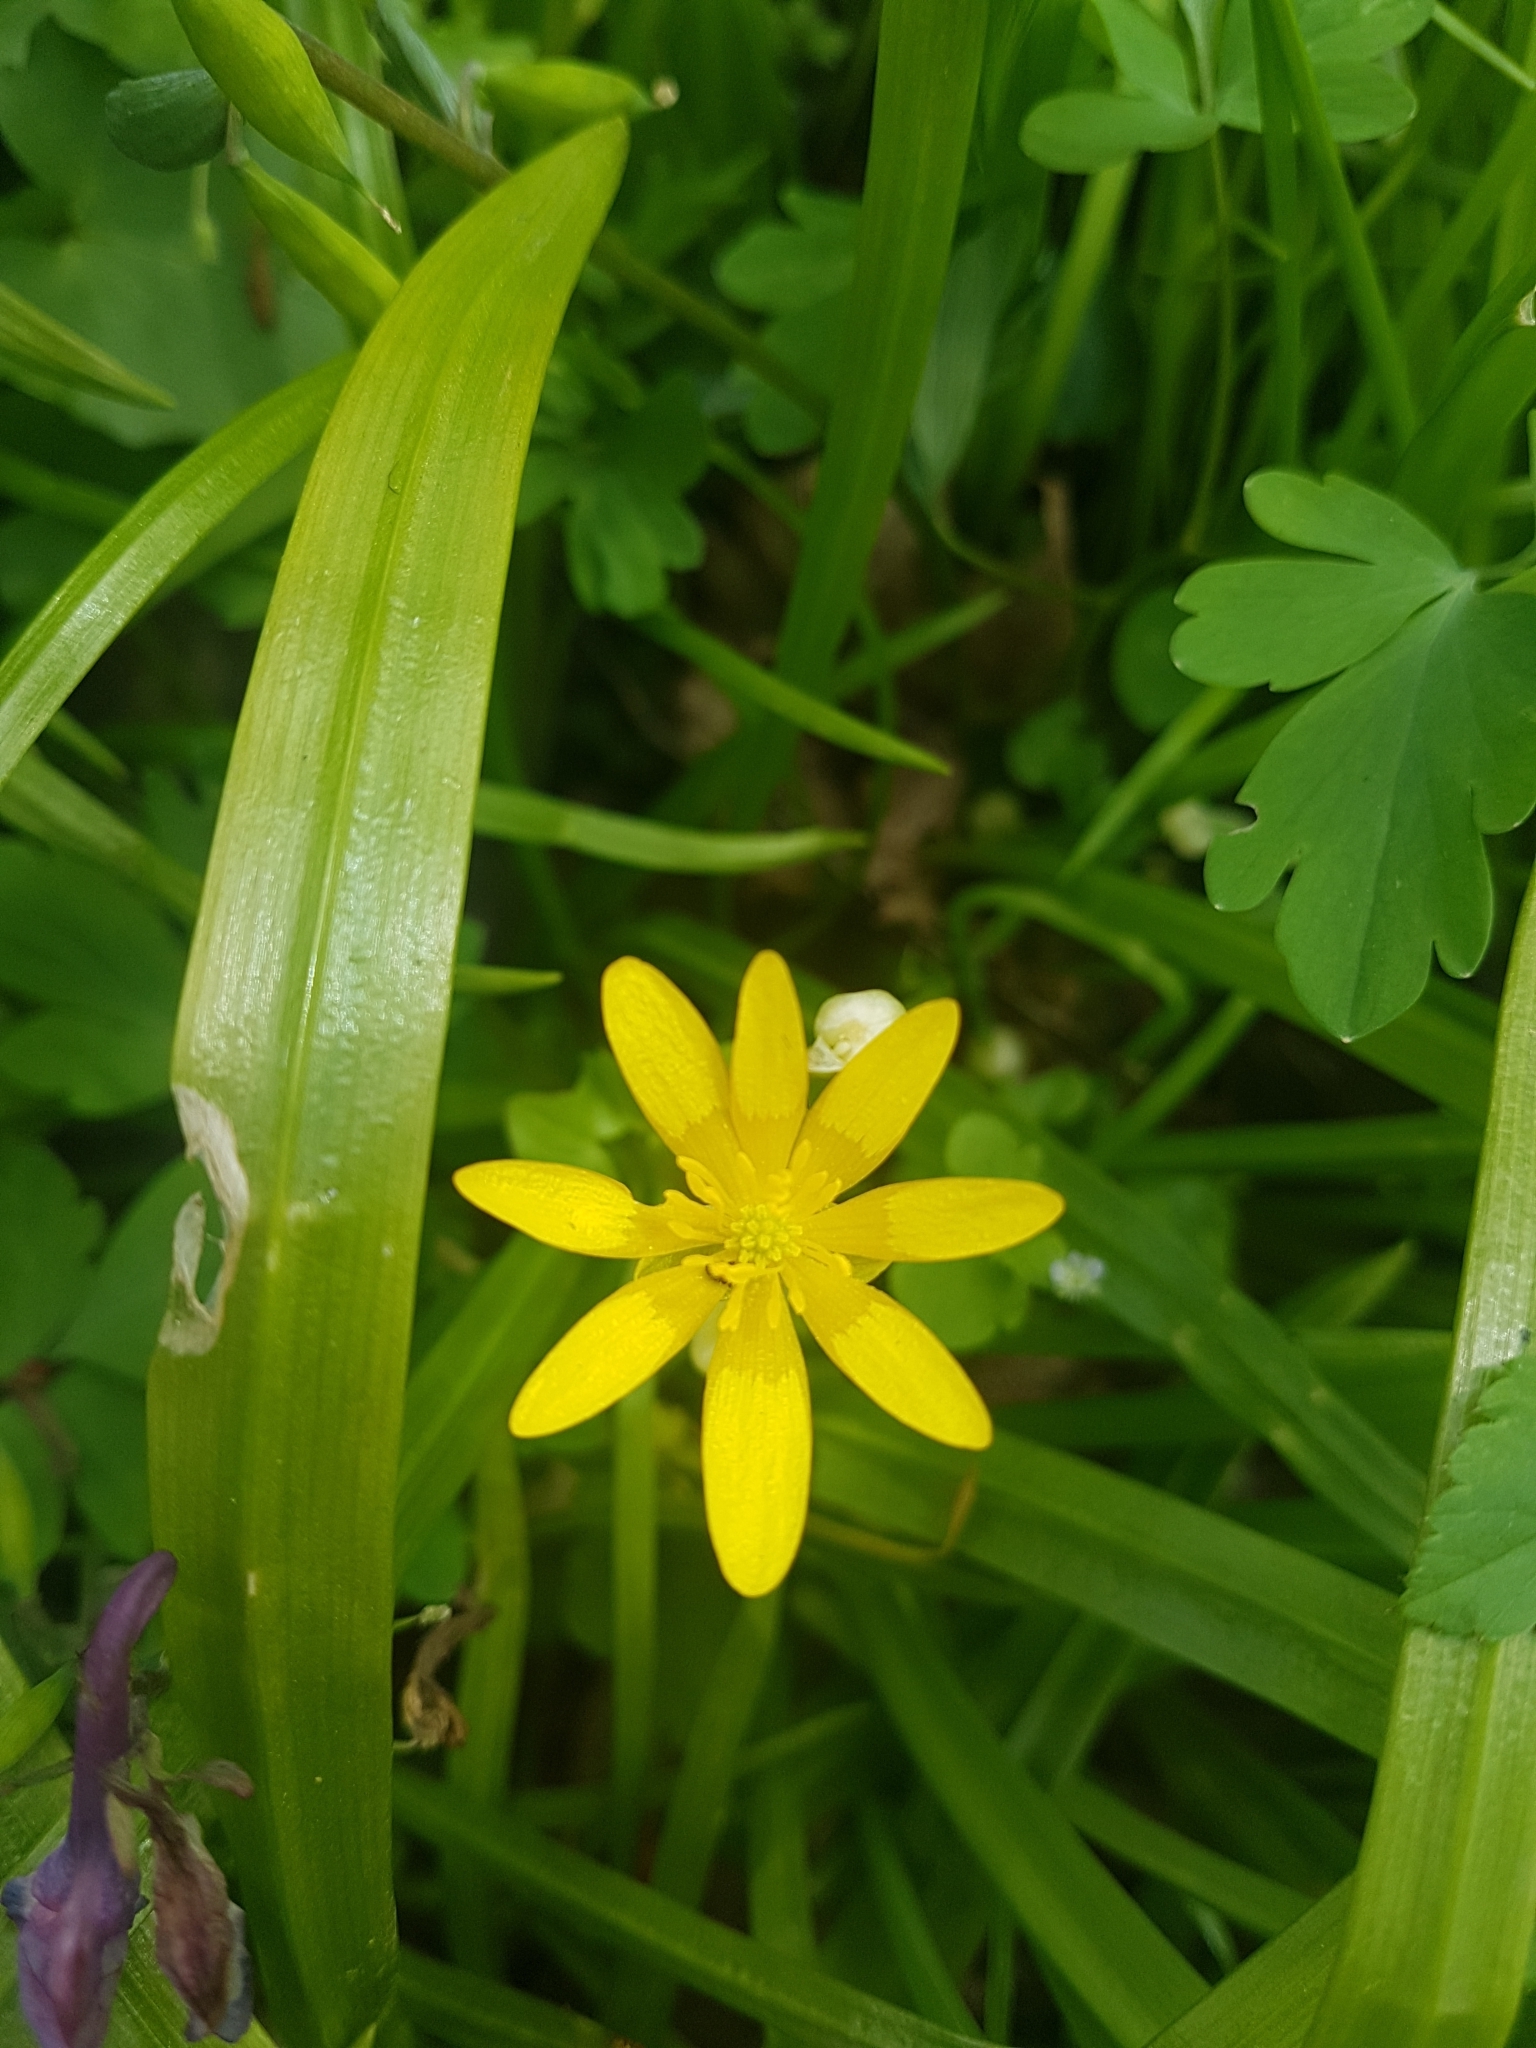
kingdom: Plantae
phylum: Tracheophyta
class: Magnoliopsida
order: Ranunculales
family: Ranunculaceae
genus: Ficaria
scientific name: Ficaria verna
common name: Lesser celandine
